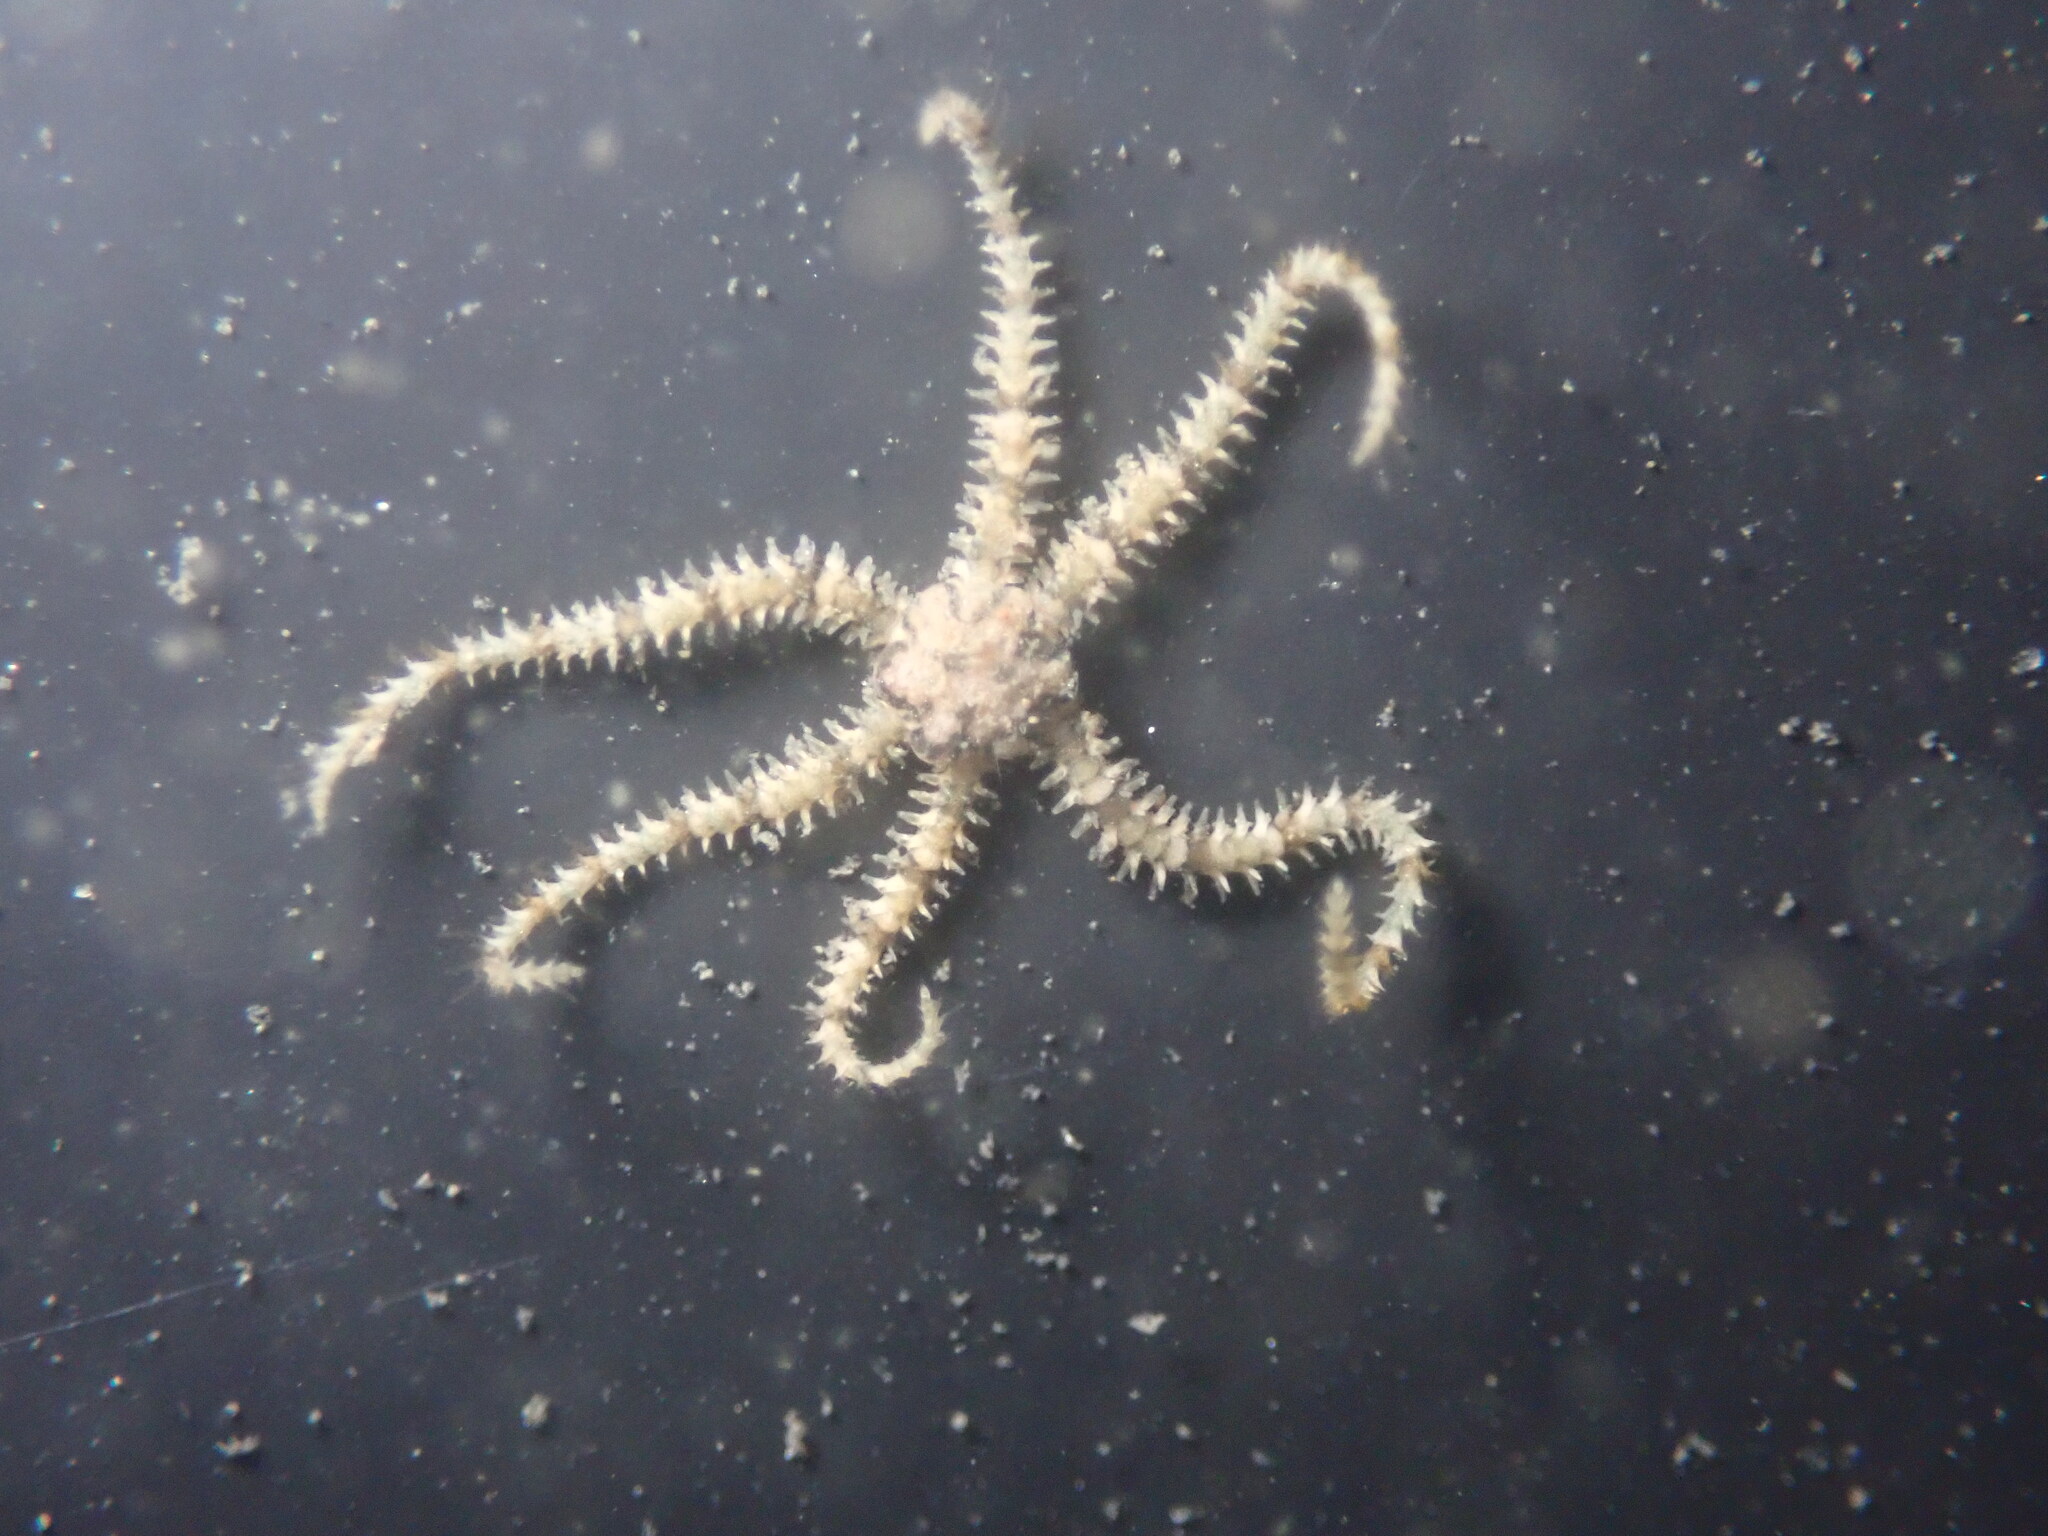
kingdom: Animalia
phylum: Echinodermata
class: Ophiuroidea
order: Amphilepidida
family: Ophiactidae
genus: Ophiactis
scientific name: Ophiactis savignyi
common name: Savigny's brittle star
